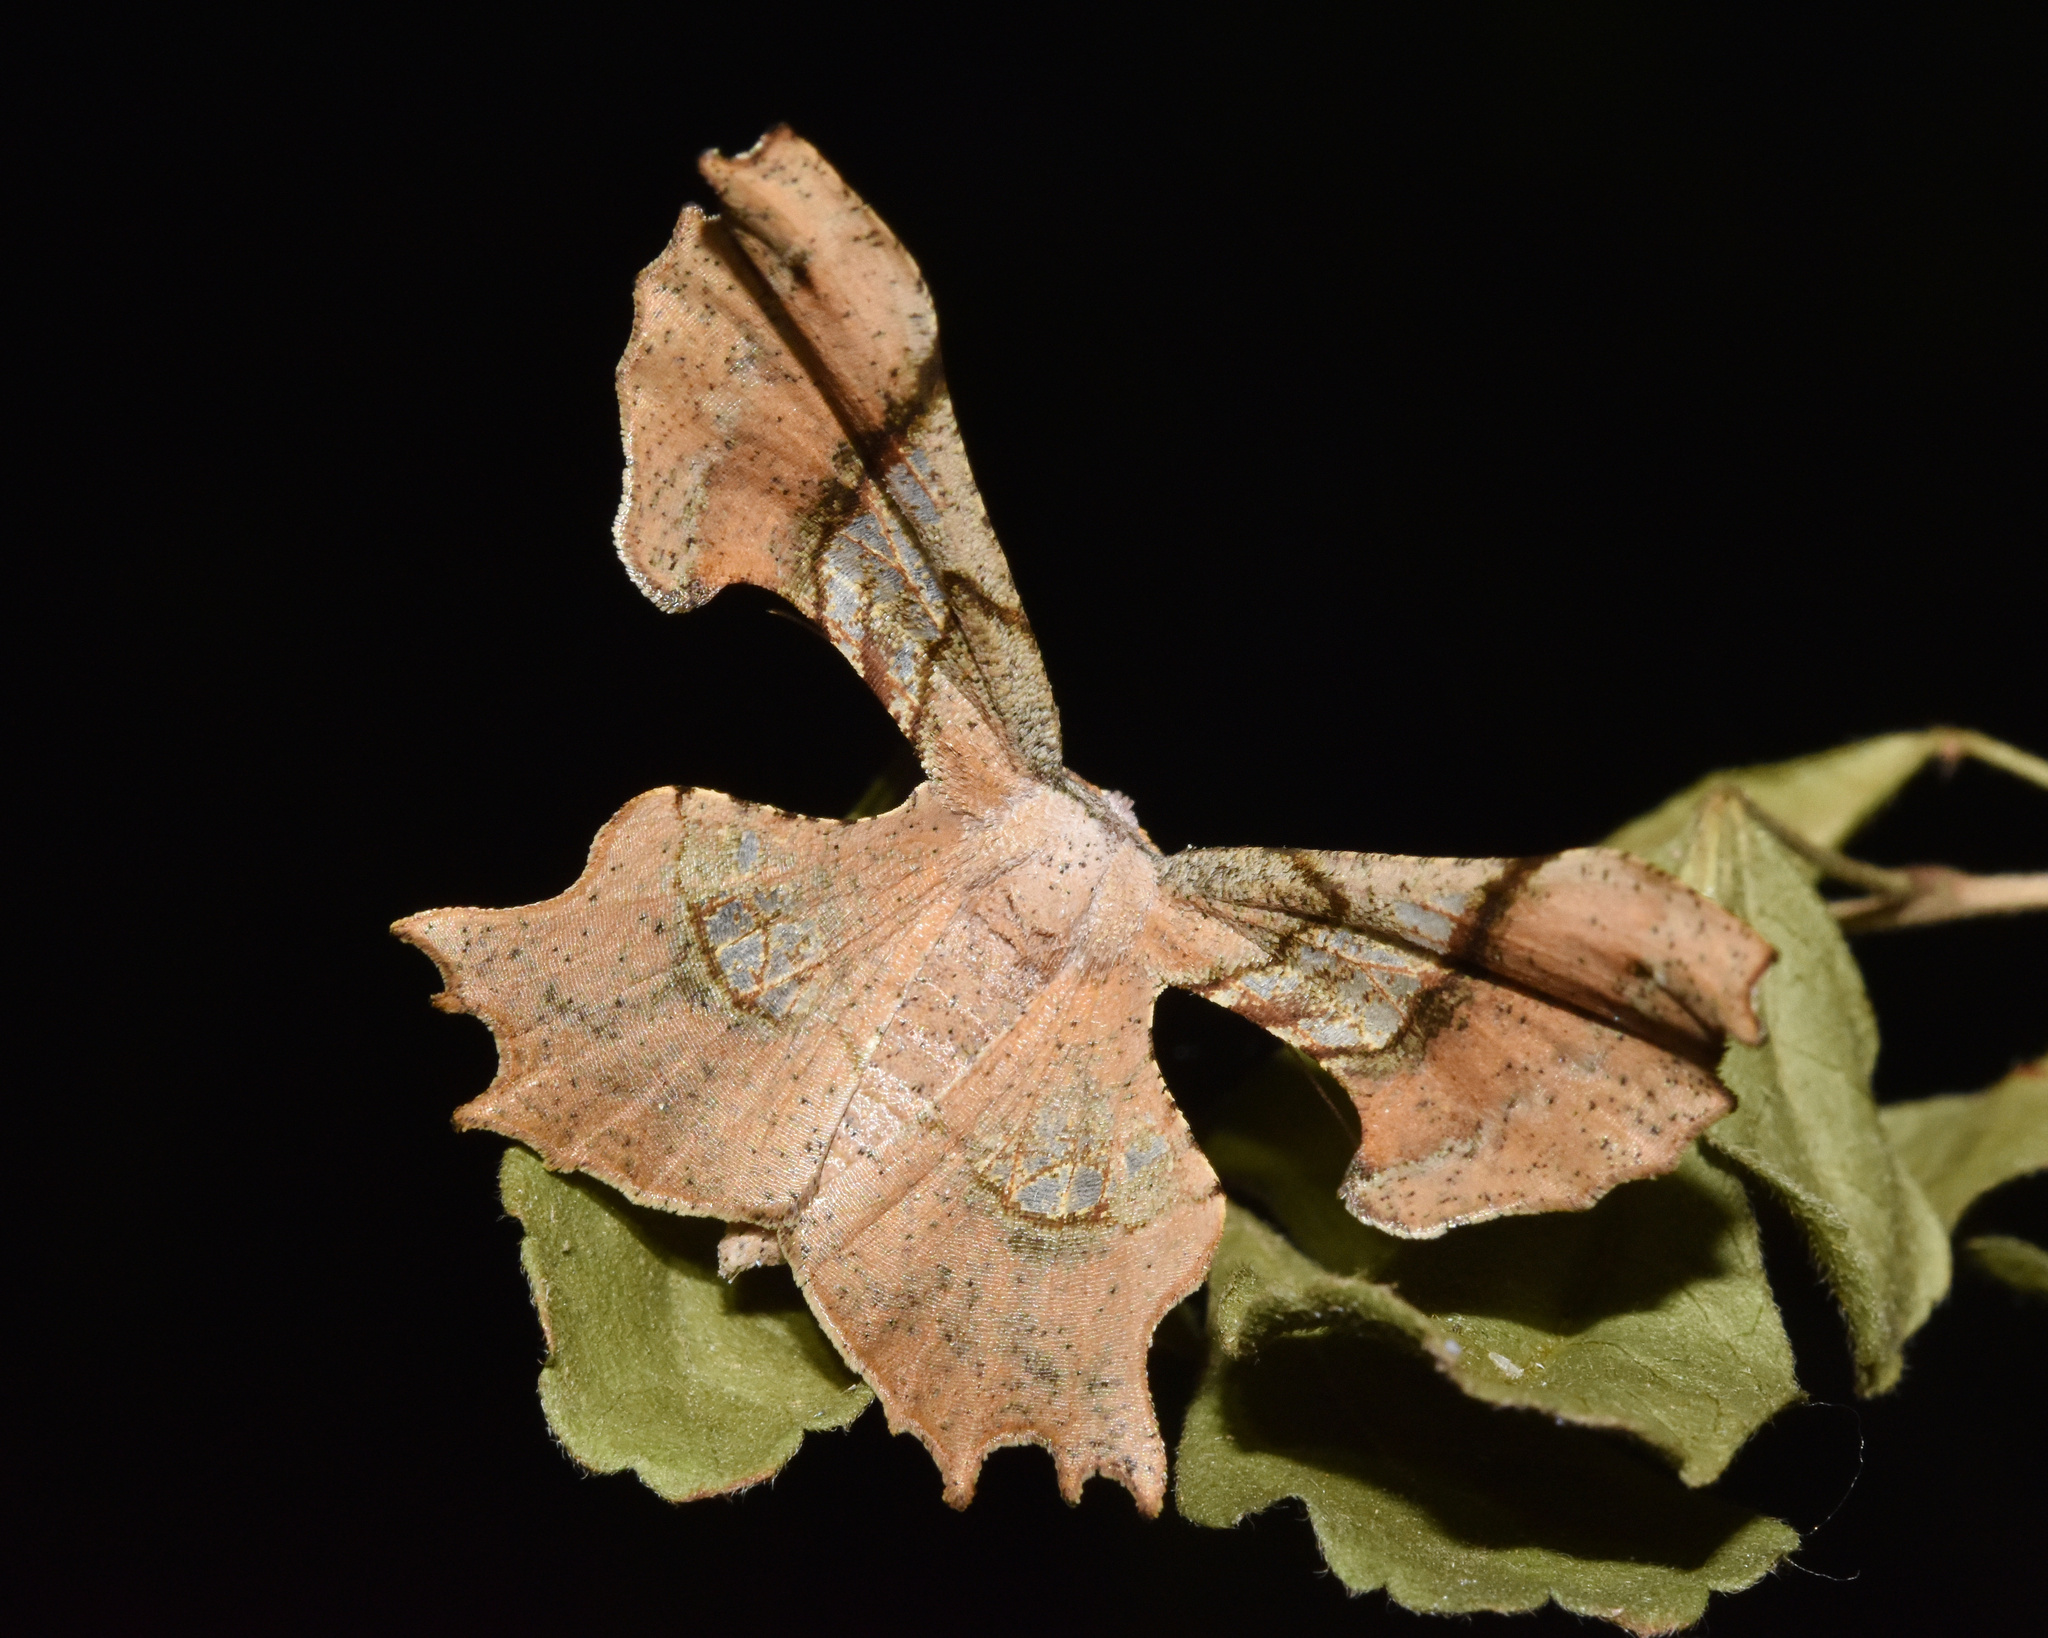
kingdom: Animalia
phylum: Arthropoda
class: Insecta
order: Lepidoptera
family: Geometridae
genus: Xenimpia
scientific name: Xenimpia erosa
